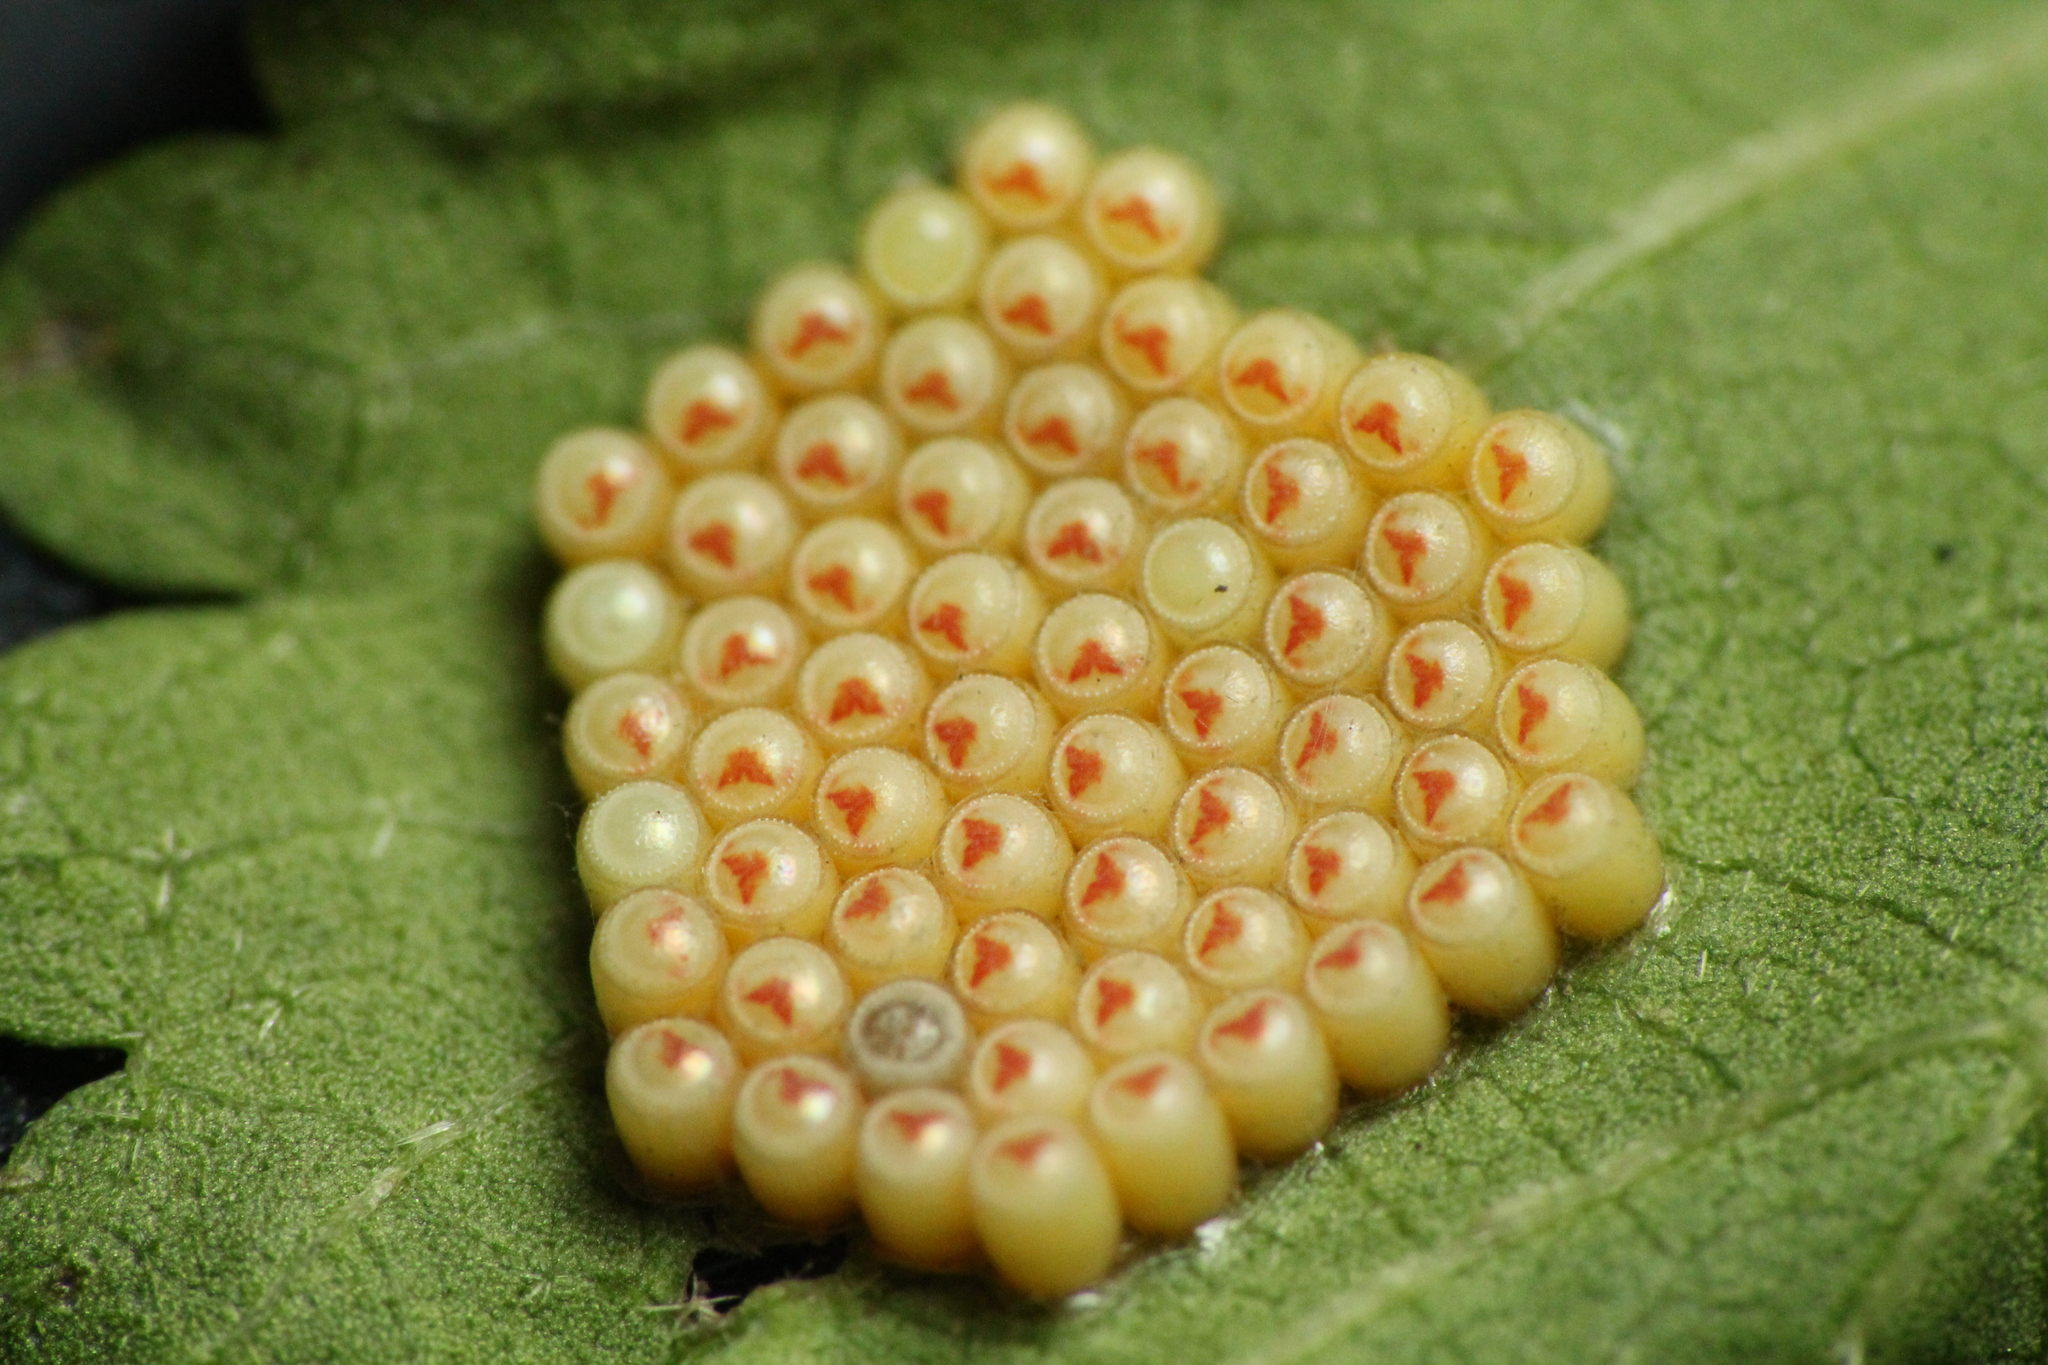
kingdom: Animalia
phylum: Arthropoda
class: Insecta
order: Hemiptera
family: Pentatomidae
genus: Nezara
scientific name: Nezara viridula
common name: Southern green stink bug
